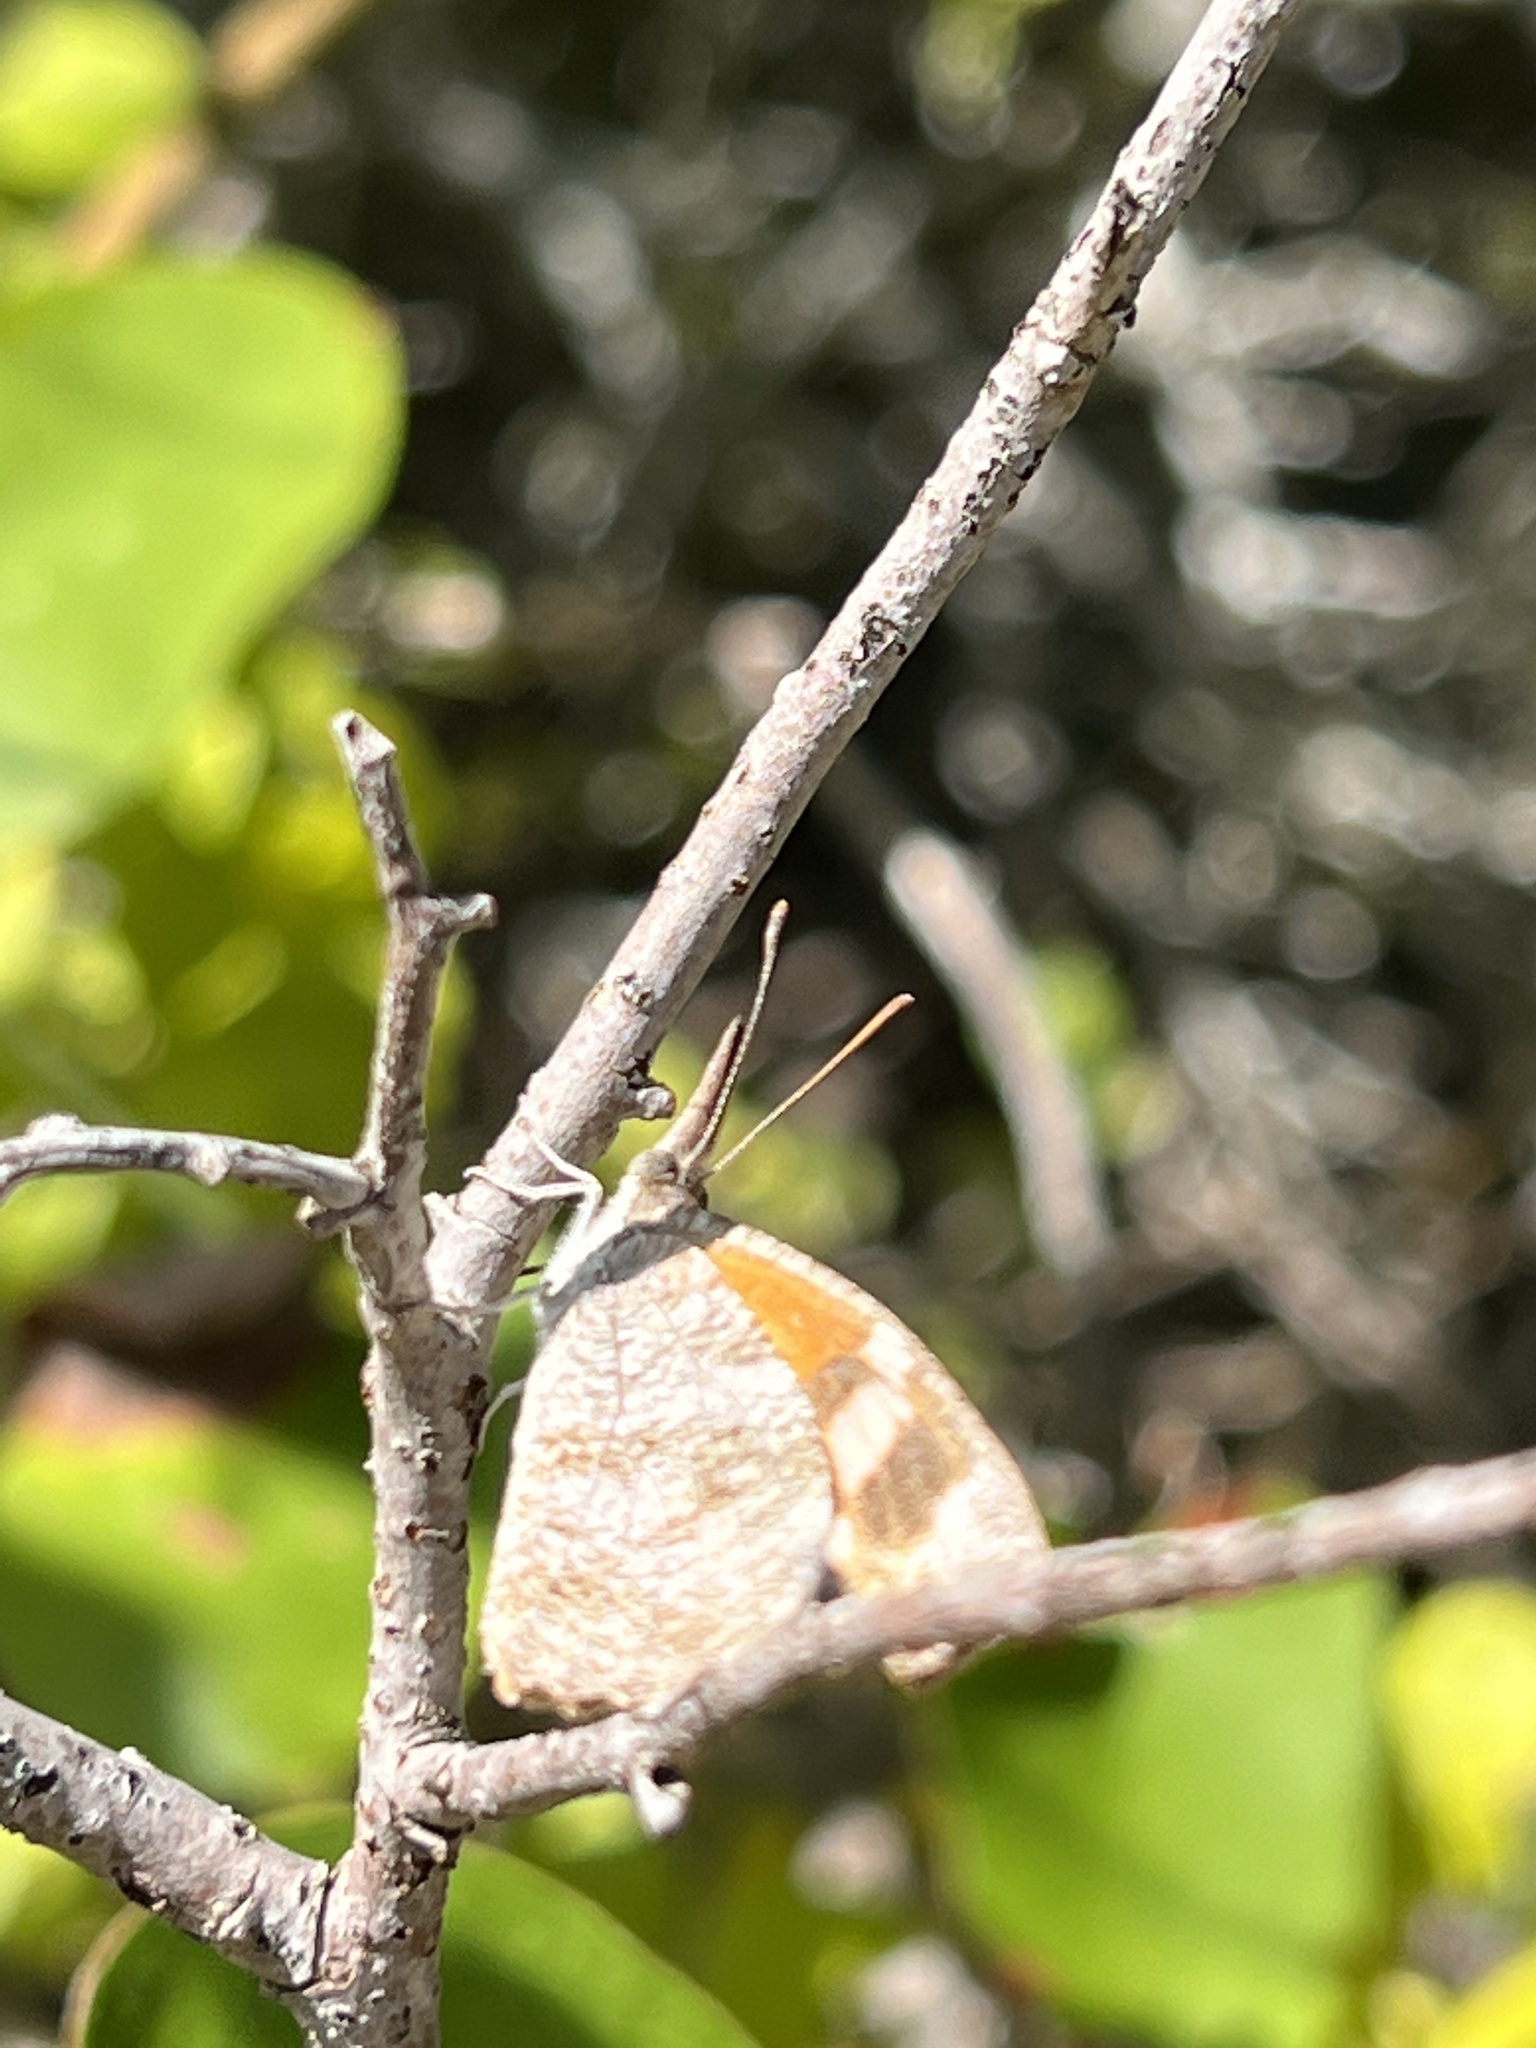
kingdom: Animalia
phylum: Arthropoda
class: Insecta
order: Lepidoptera
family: Nymphalidae
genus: Libytheana
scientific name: Libytheana carinenta
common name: American snout
